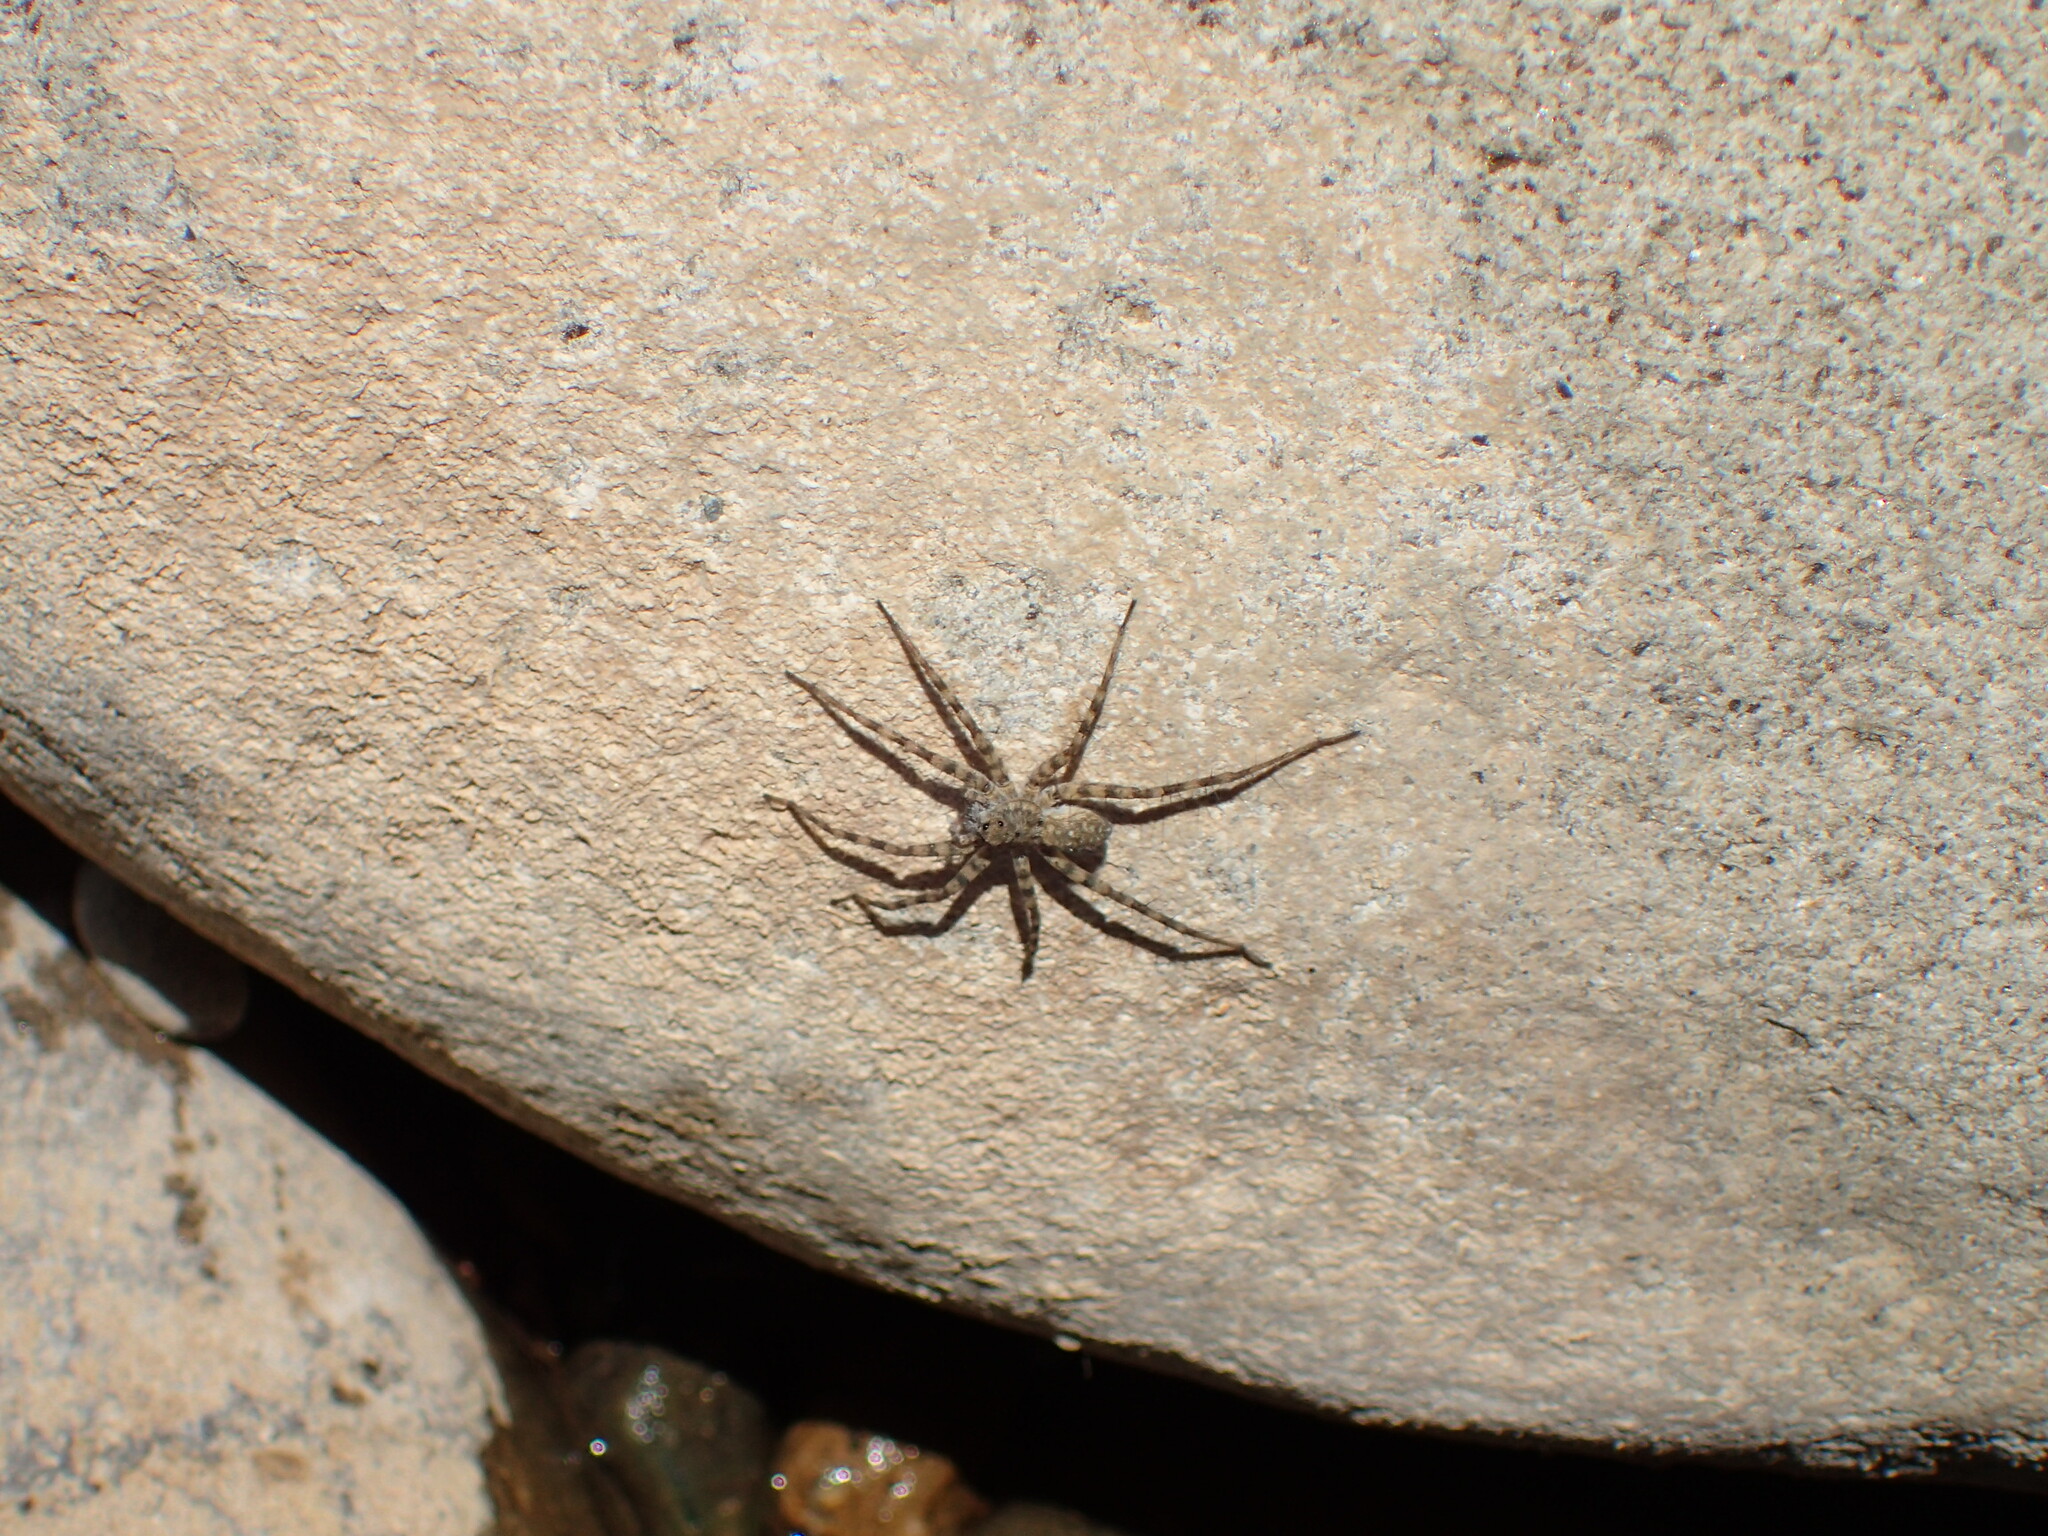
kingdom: Animalia
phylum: Arthropoda
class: Arachnida
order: Araneae
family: Lycosidae
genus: Pardosa
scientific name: Pardosa
